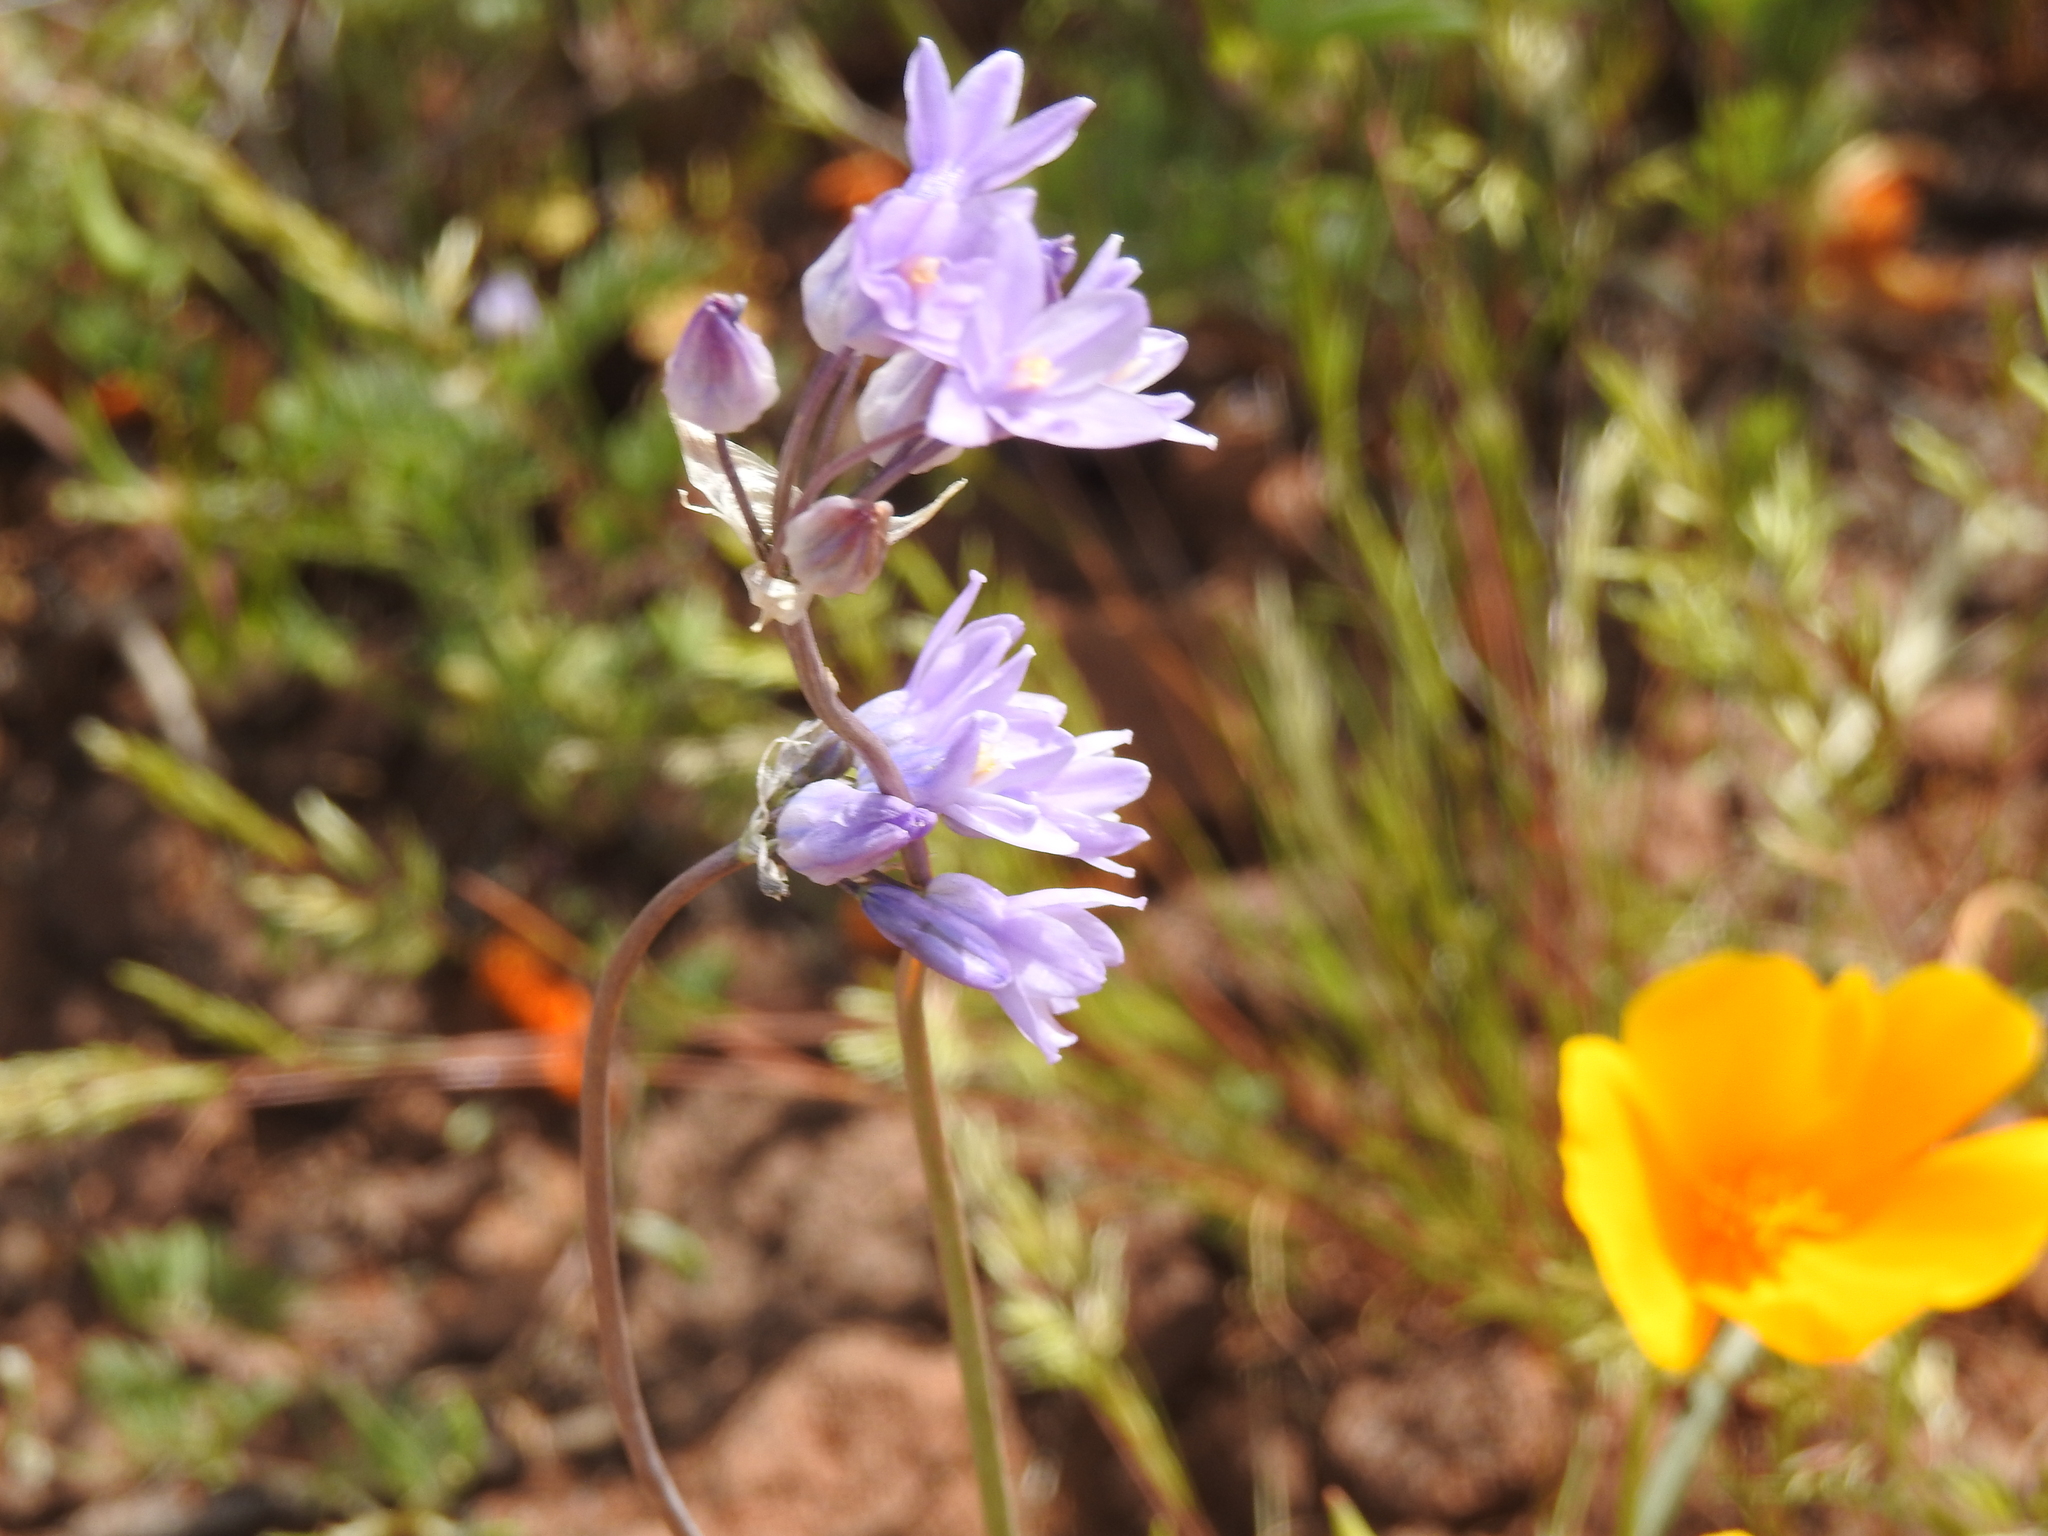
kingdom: Plantae
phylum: Tracheophyta
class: Liliopsida
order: Asparagales
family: Asparagaceae
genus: Dipterostemon
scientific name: Dipterostemon capitatus
